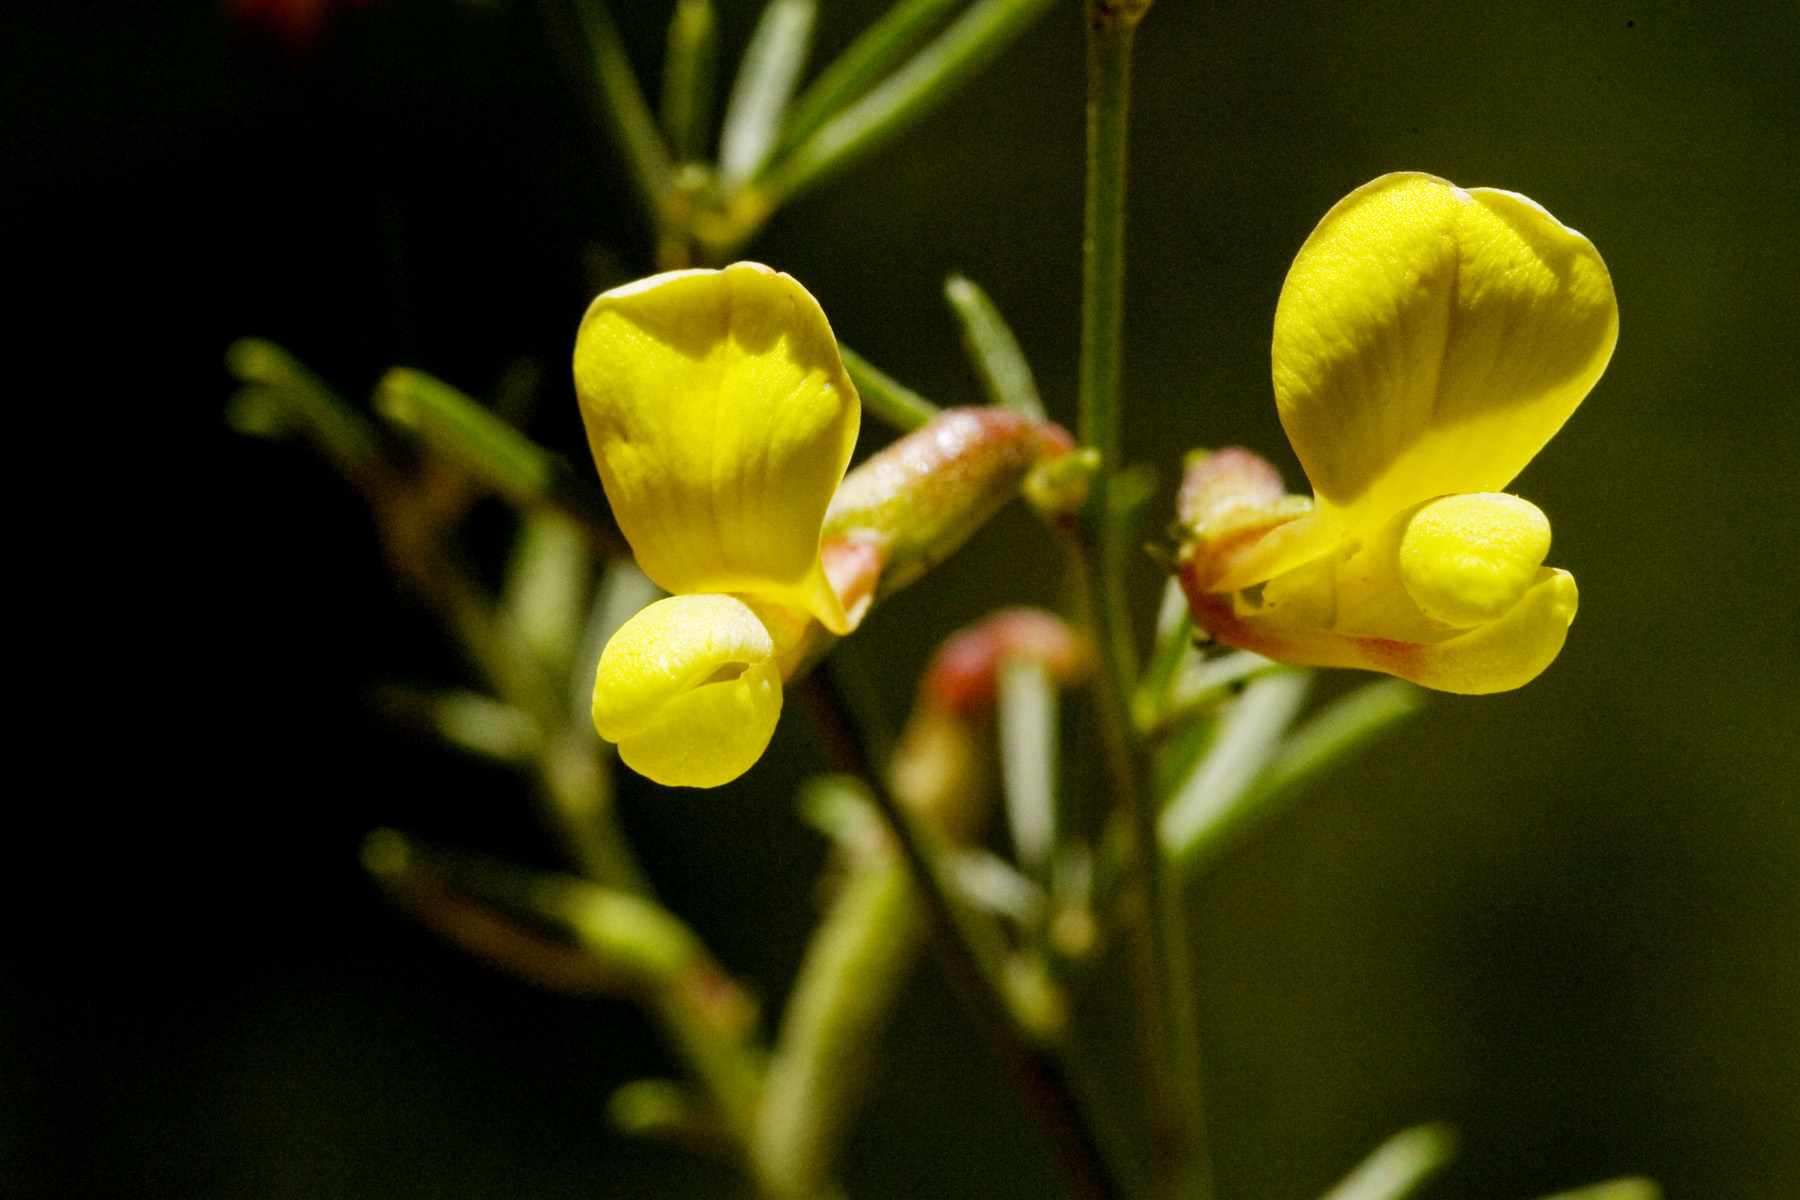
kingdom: Plantae
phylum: Tracheophyta
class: Magnoliopsida
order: Fabales
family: Fabaceae
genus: Acmispon
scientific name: Acmispon wrightii
